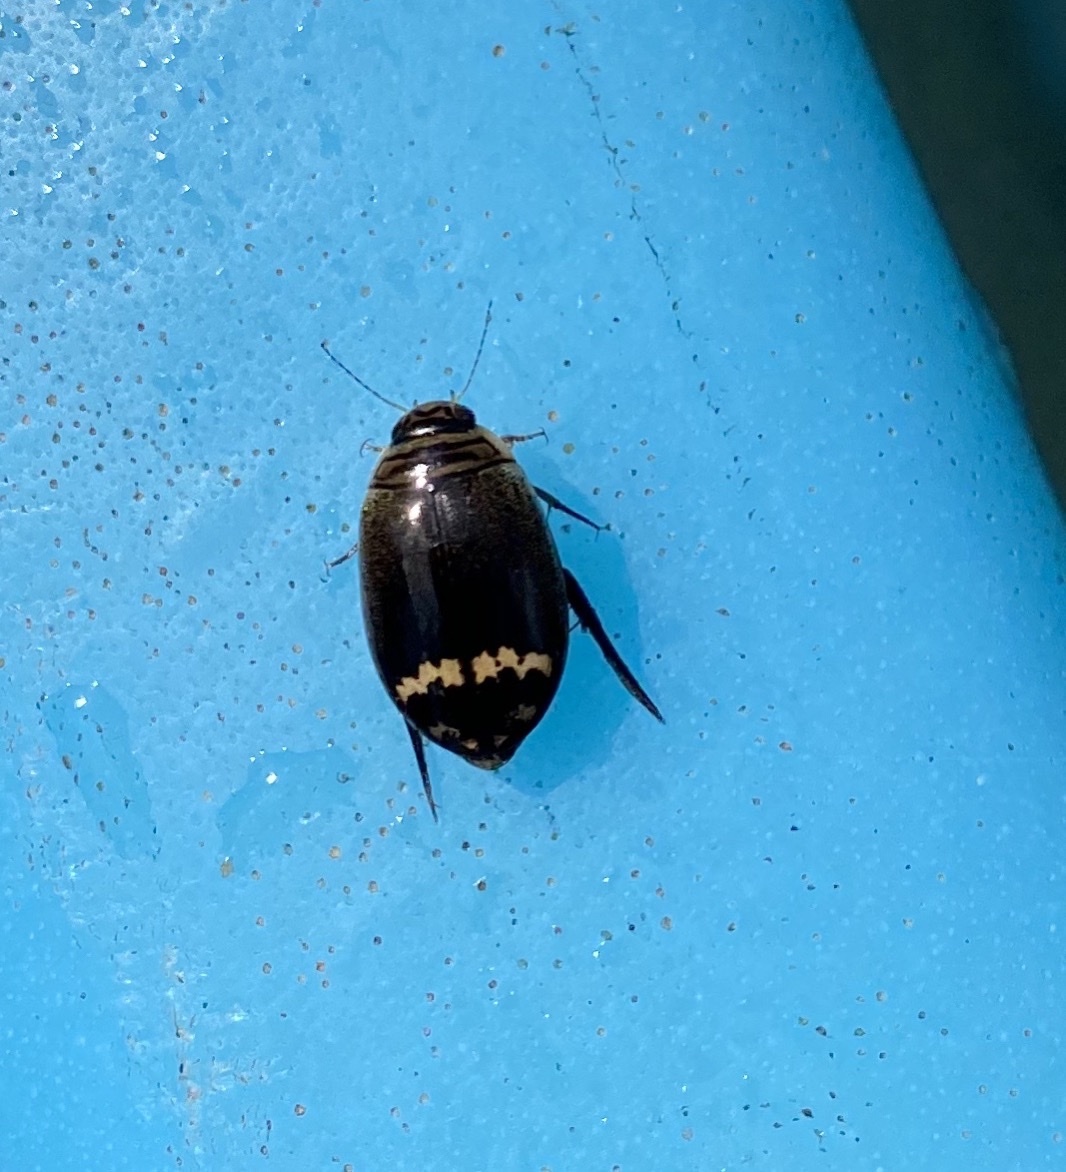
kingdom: Animalia
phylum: Arthropoda
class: Insecta
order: Coleoptera
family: Dytiscidae
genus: Acilius
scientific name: Acilius mediatus
